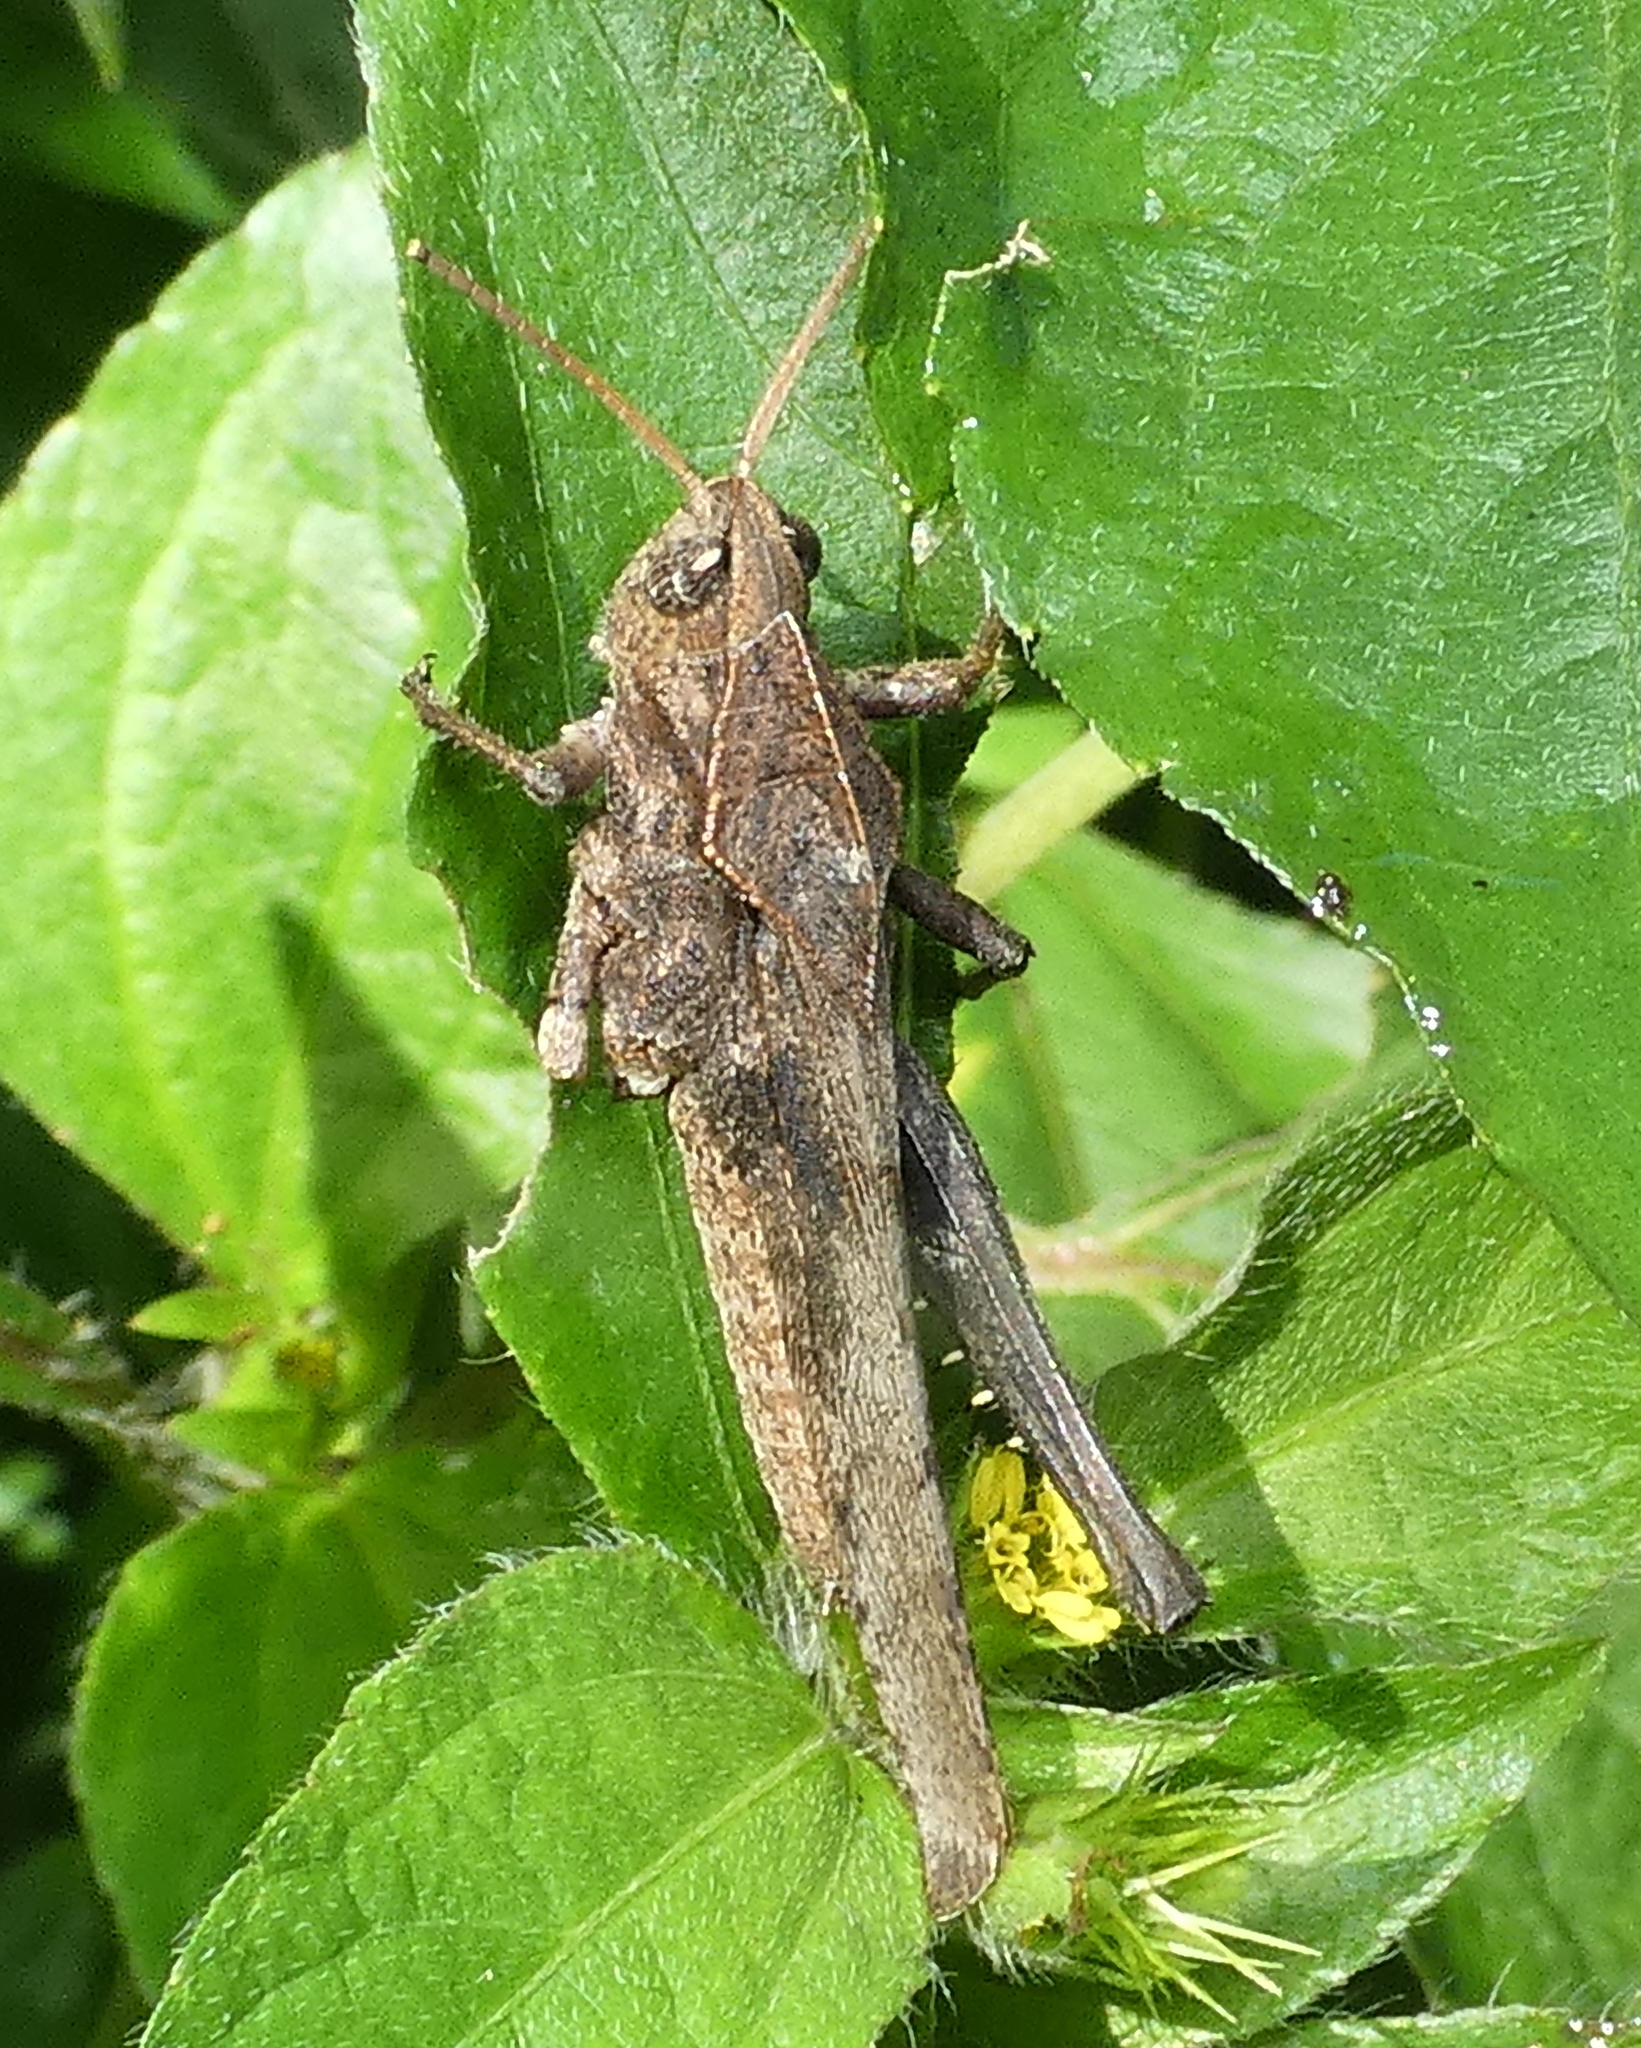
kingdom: Animalia
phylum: Arthropoda
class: Insecta
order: Orthoptera
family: Romaleidae
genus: Xyleus
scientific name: Xyleus discoideus
